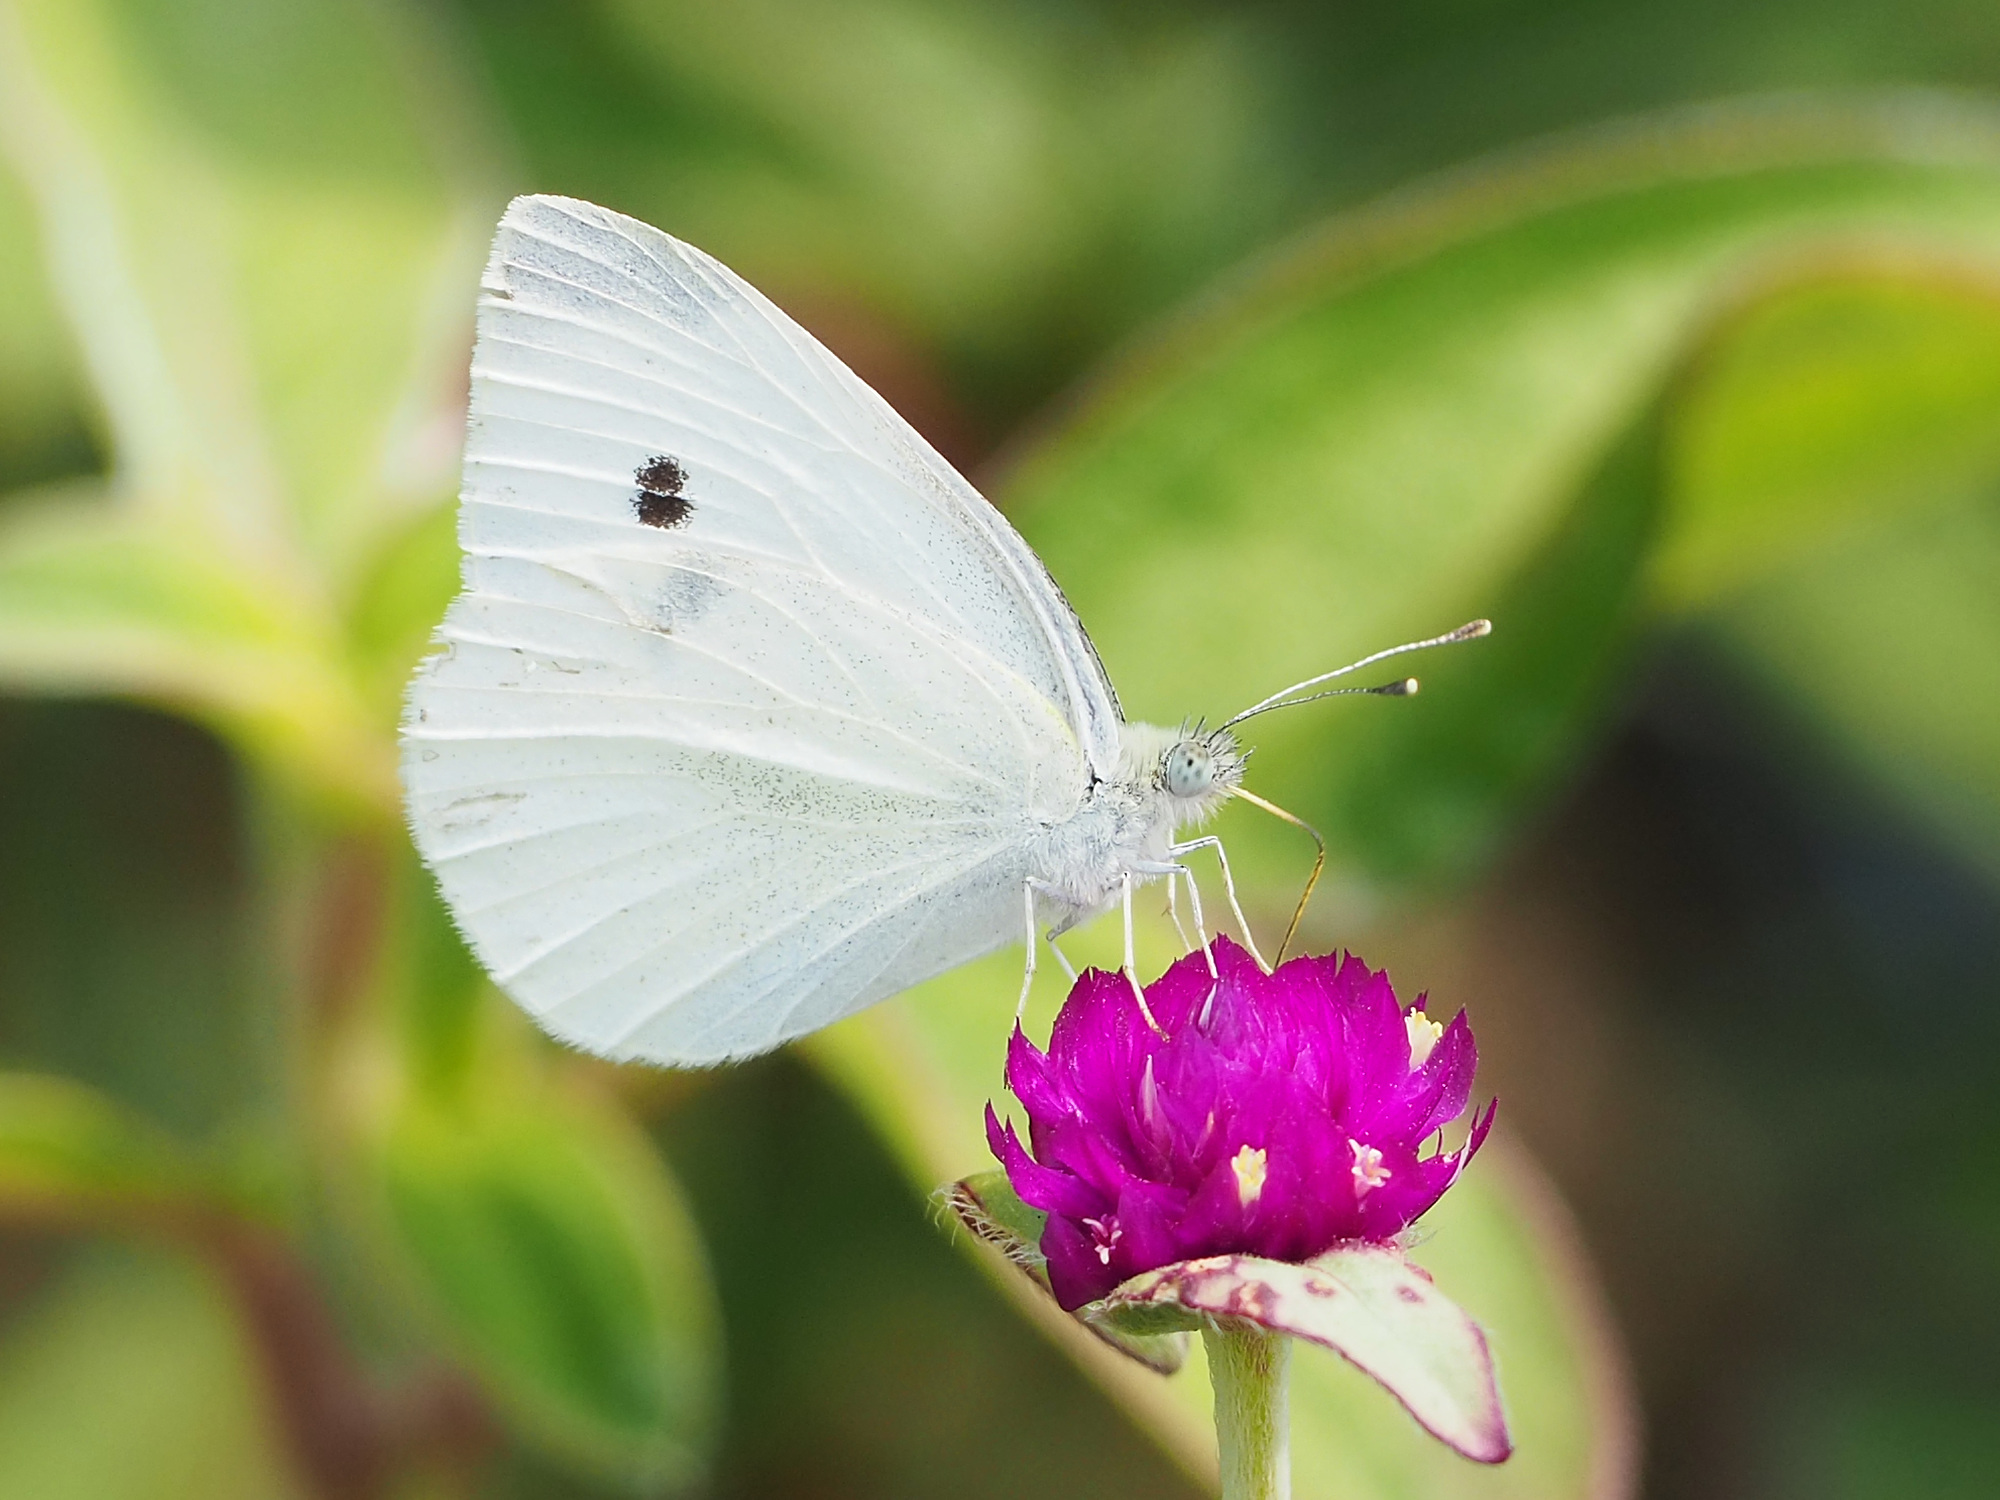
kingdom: Animalia
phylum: Arthropoda
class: Insecta
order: Lepidoptera
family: Pieridae
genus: Pieris
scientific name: Pieris rapae
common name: Small white
